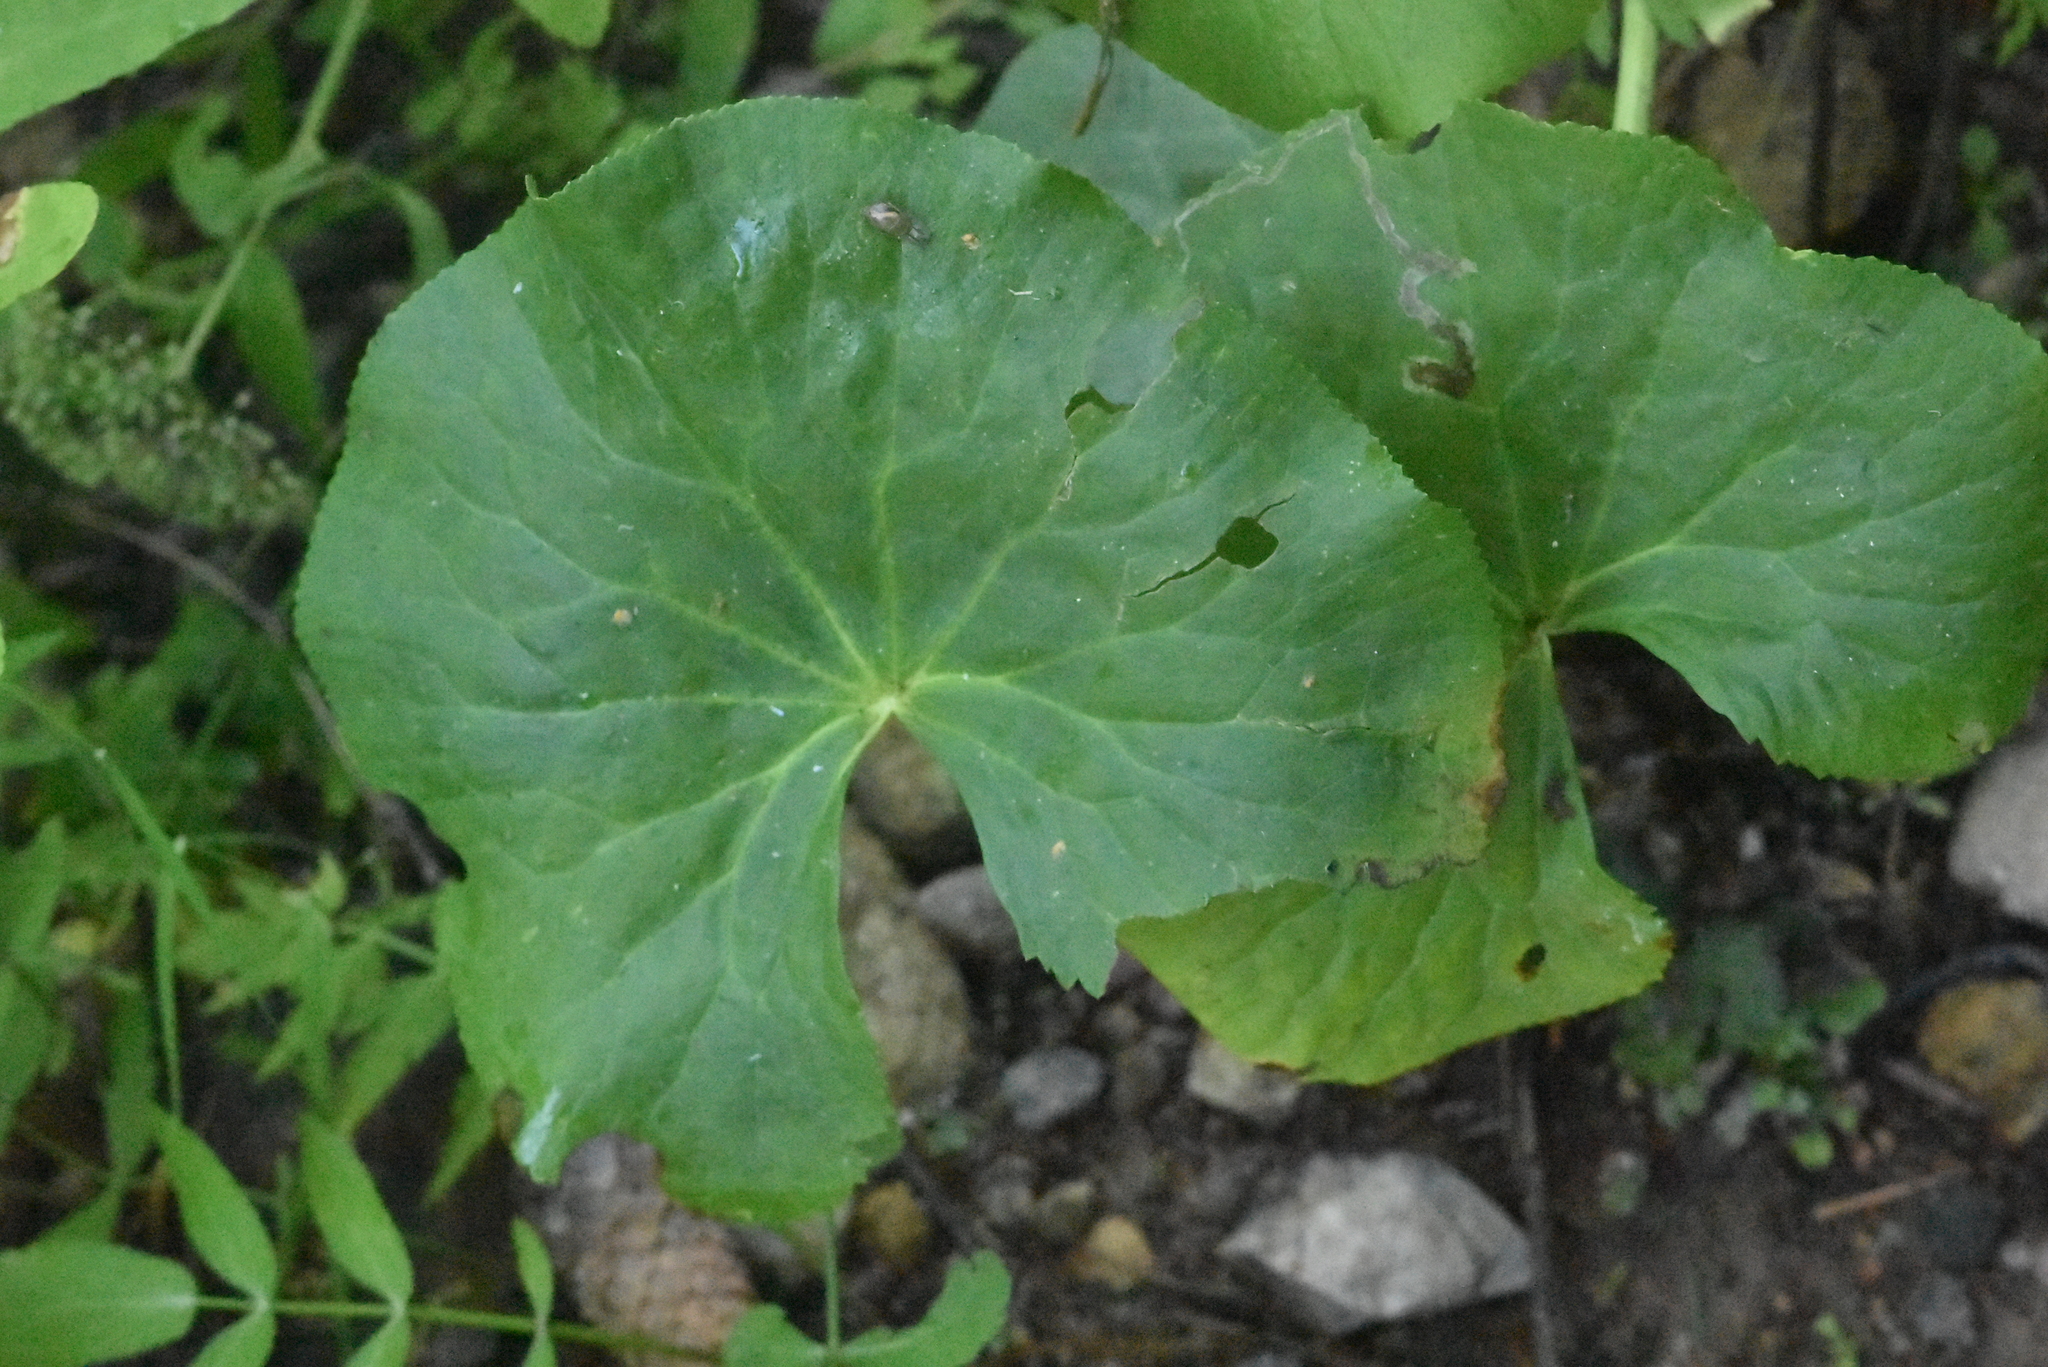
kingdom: Plantae
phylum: Tracheophyta
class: Magnoliopsida
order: Ranunculales
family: Ranunculaceae
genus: Caltha
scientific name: Caltha palustris
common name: Marsh marigold
